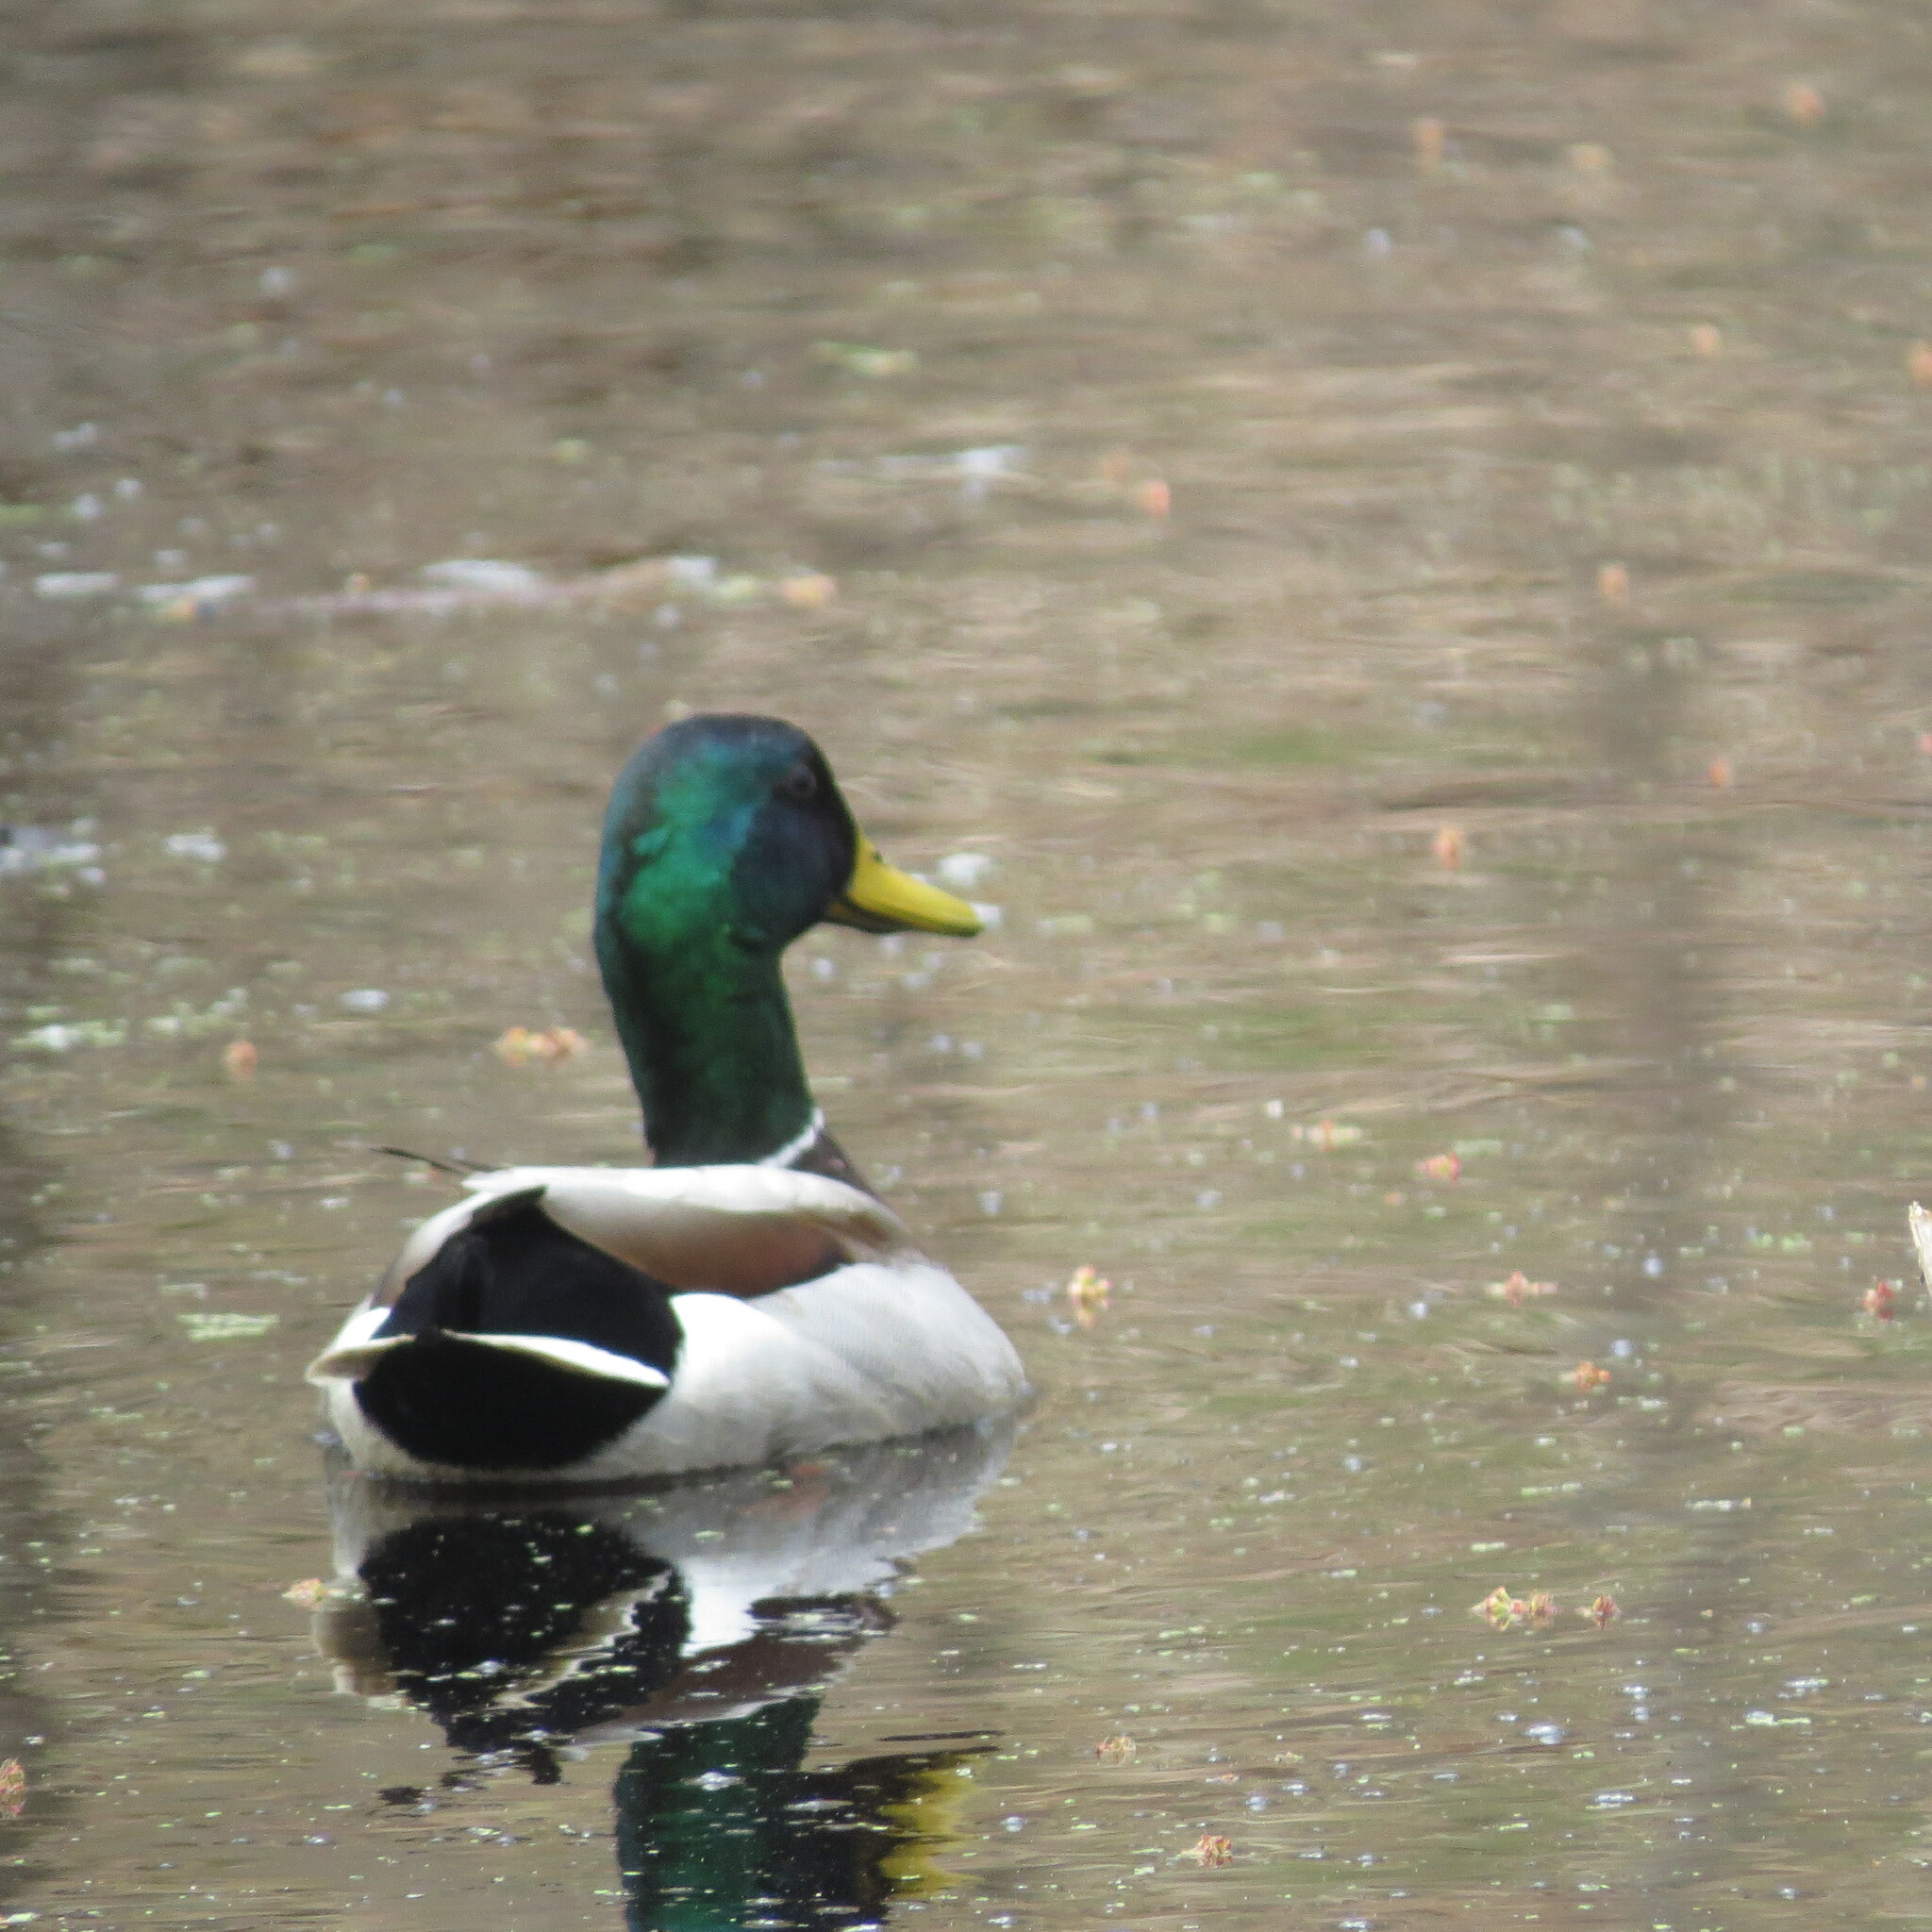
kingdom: Animalia
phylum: Chordata
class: Aves
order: Anseriformes
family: Anatidae
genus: Anas
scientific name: Anas platyrhynchos
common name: Mallard
